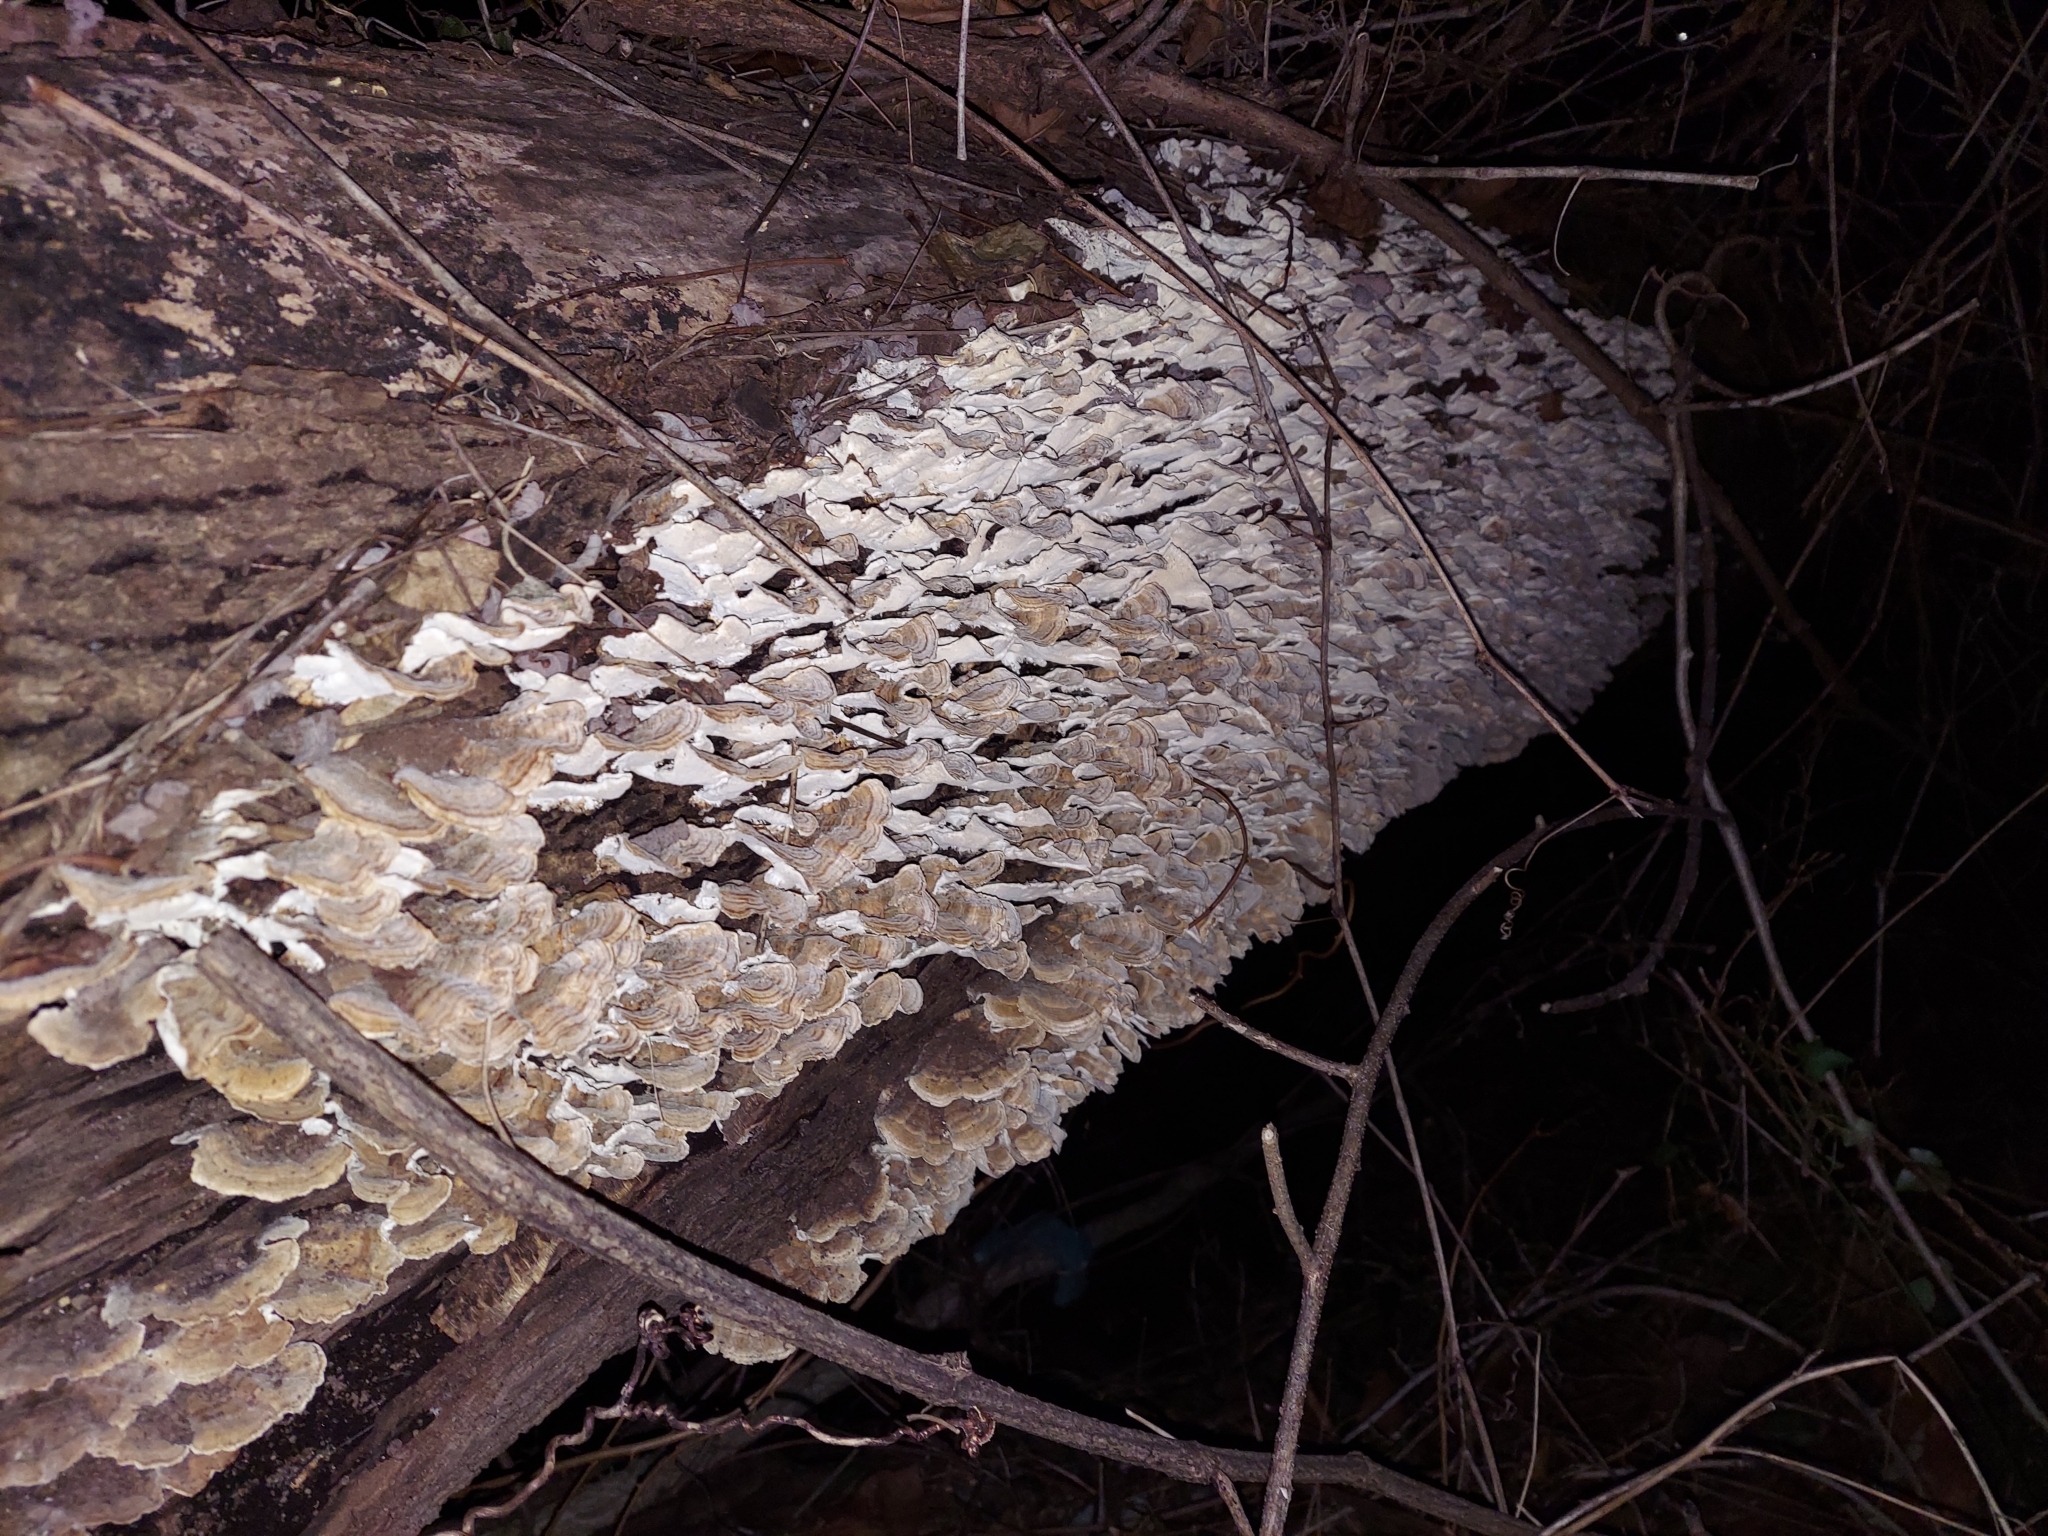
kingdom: Fungi
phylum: Basidiomycota
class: Agaricomycetes
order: Polyporales
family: Polyporaceae
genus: Trametes
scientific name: Trametes versicolor
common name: Turkeytail
